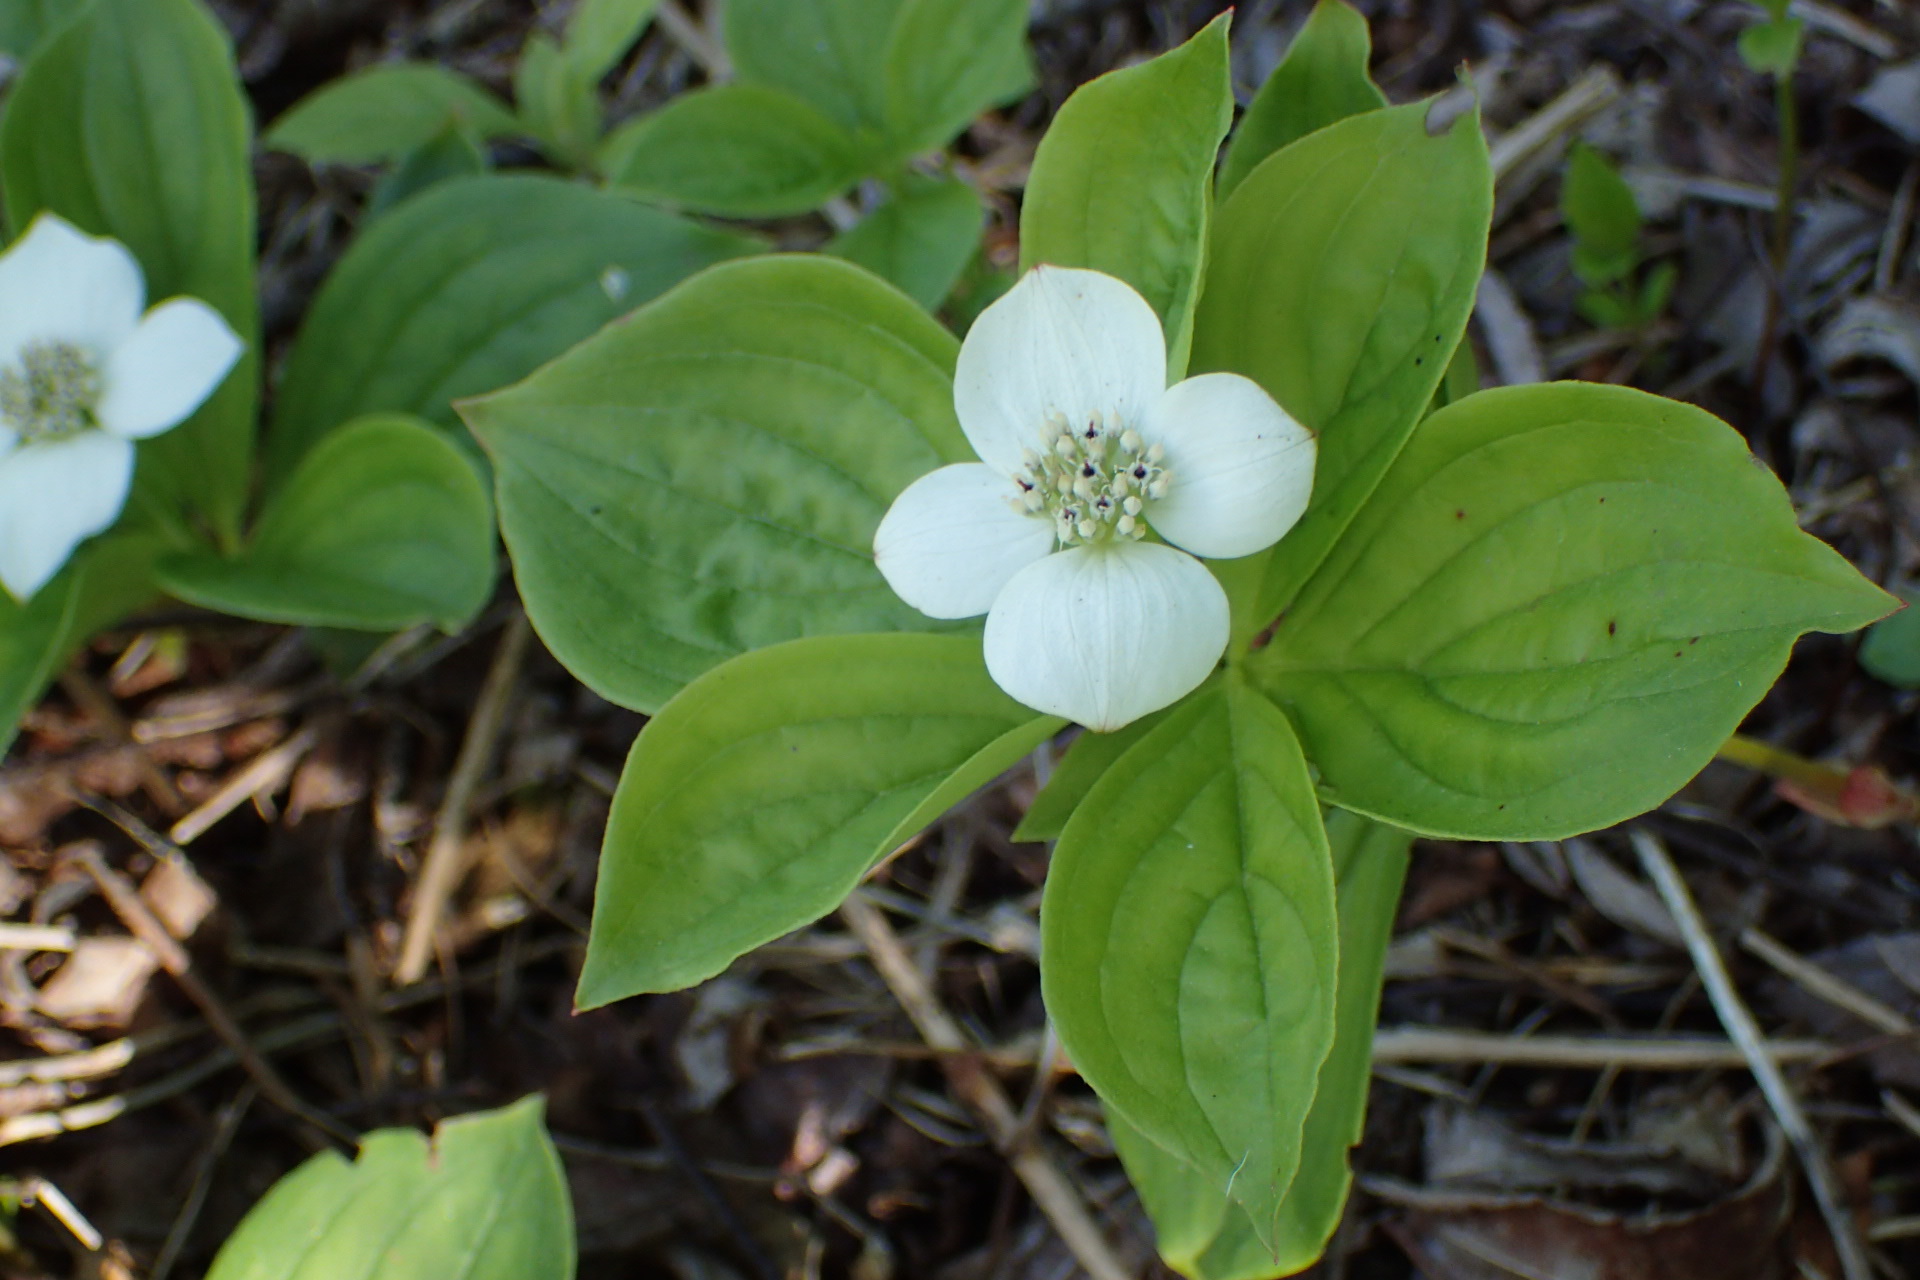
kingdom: Plantae
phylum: Tracheophyta
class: Magnoliopsida
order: Cornales
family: Cornaceae
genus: Cornus
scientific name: Cornus canadensis
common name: Creeping dogwood
